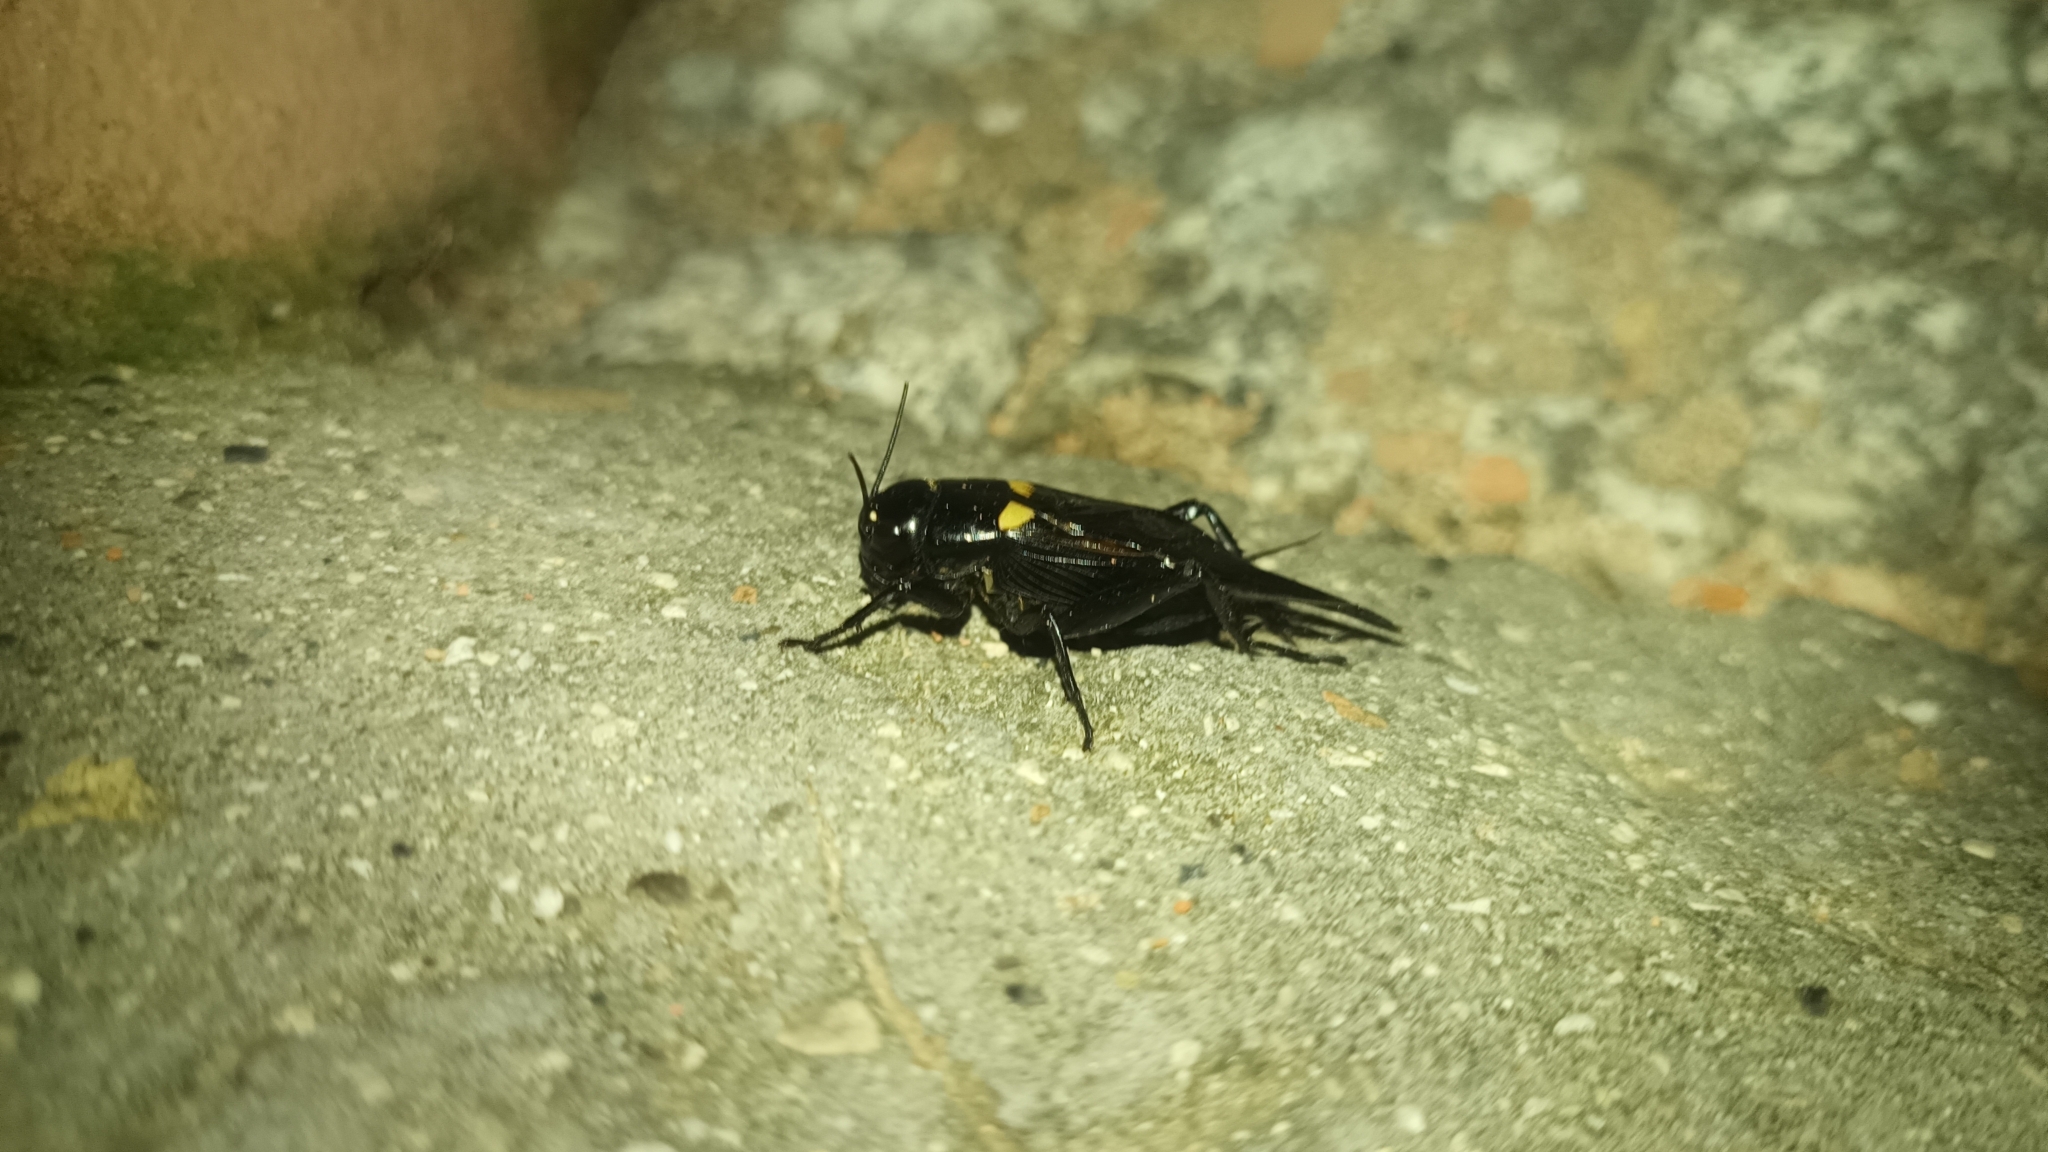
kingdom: Animalia
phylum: Arthropoda
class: Insecta
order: Orthoptera
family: Gryllidae
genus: Gryllus
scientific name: Gryllus bimaculatus
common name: Two-spotted cricket
